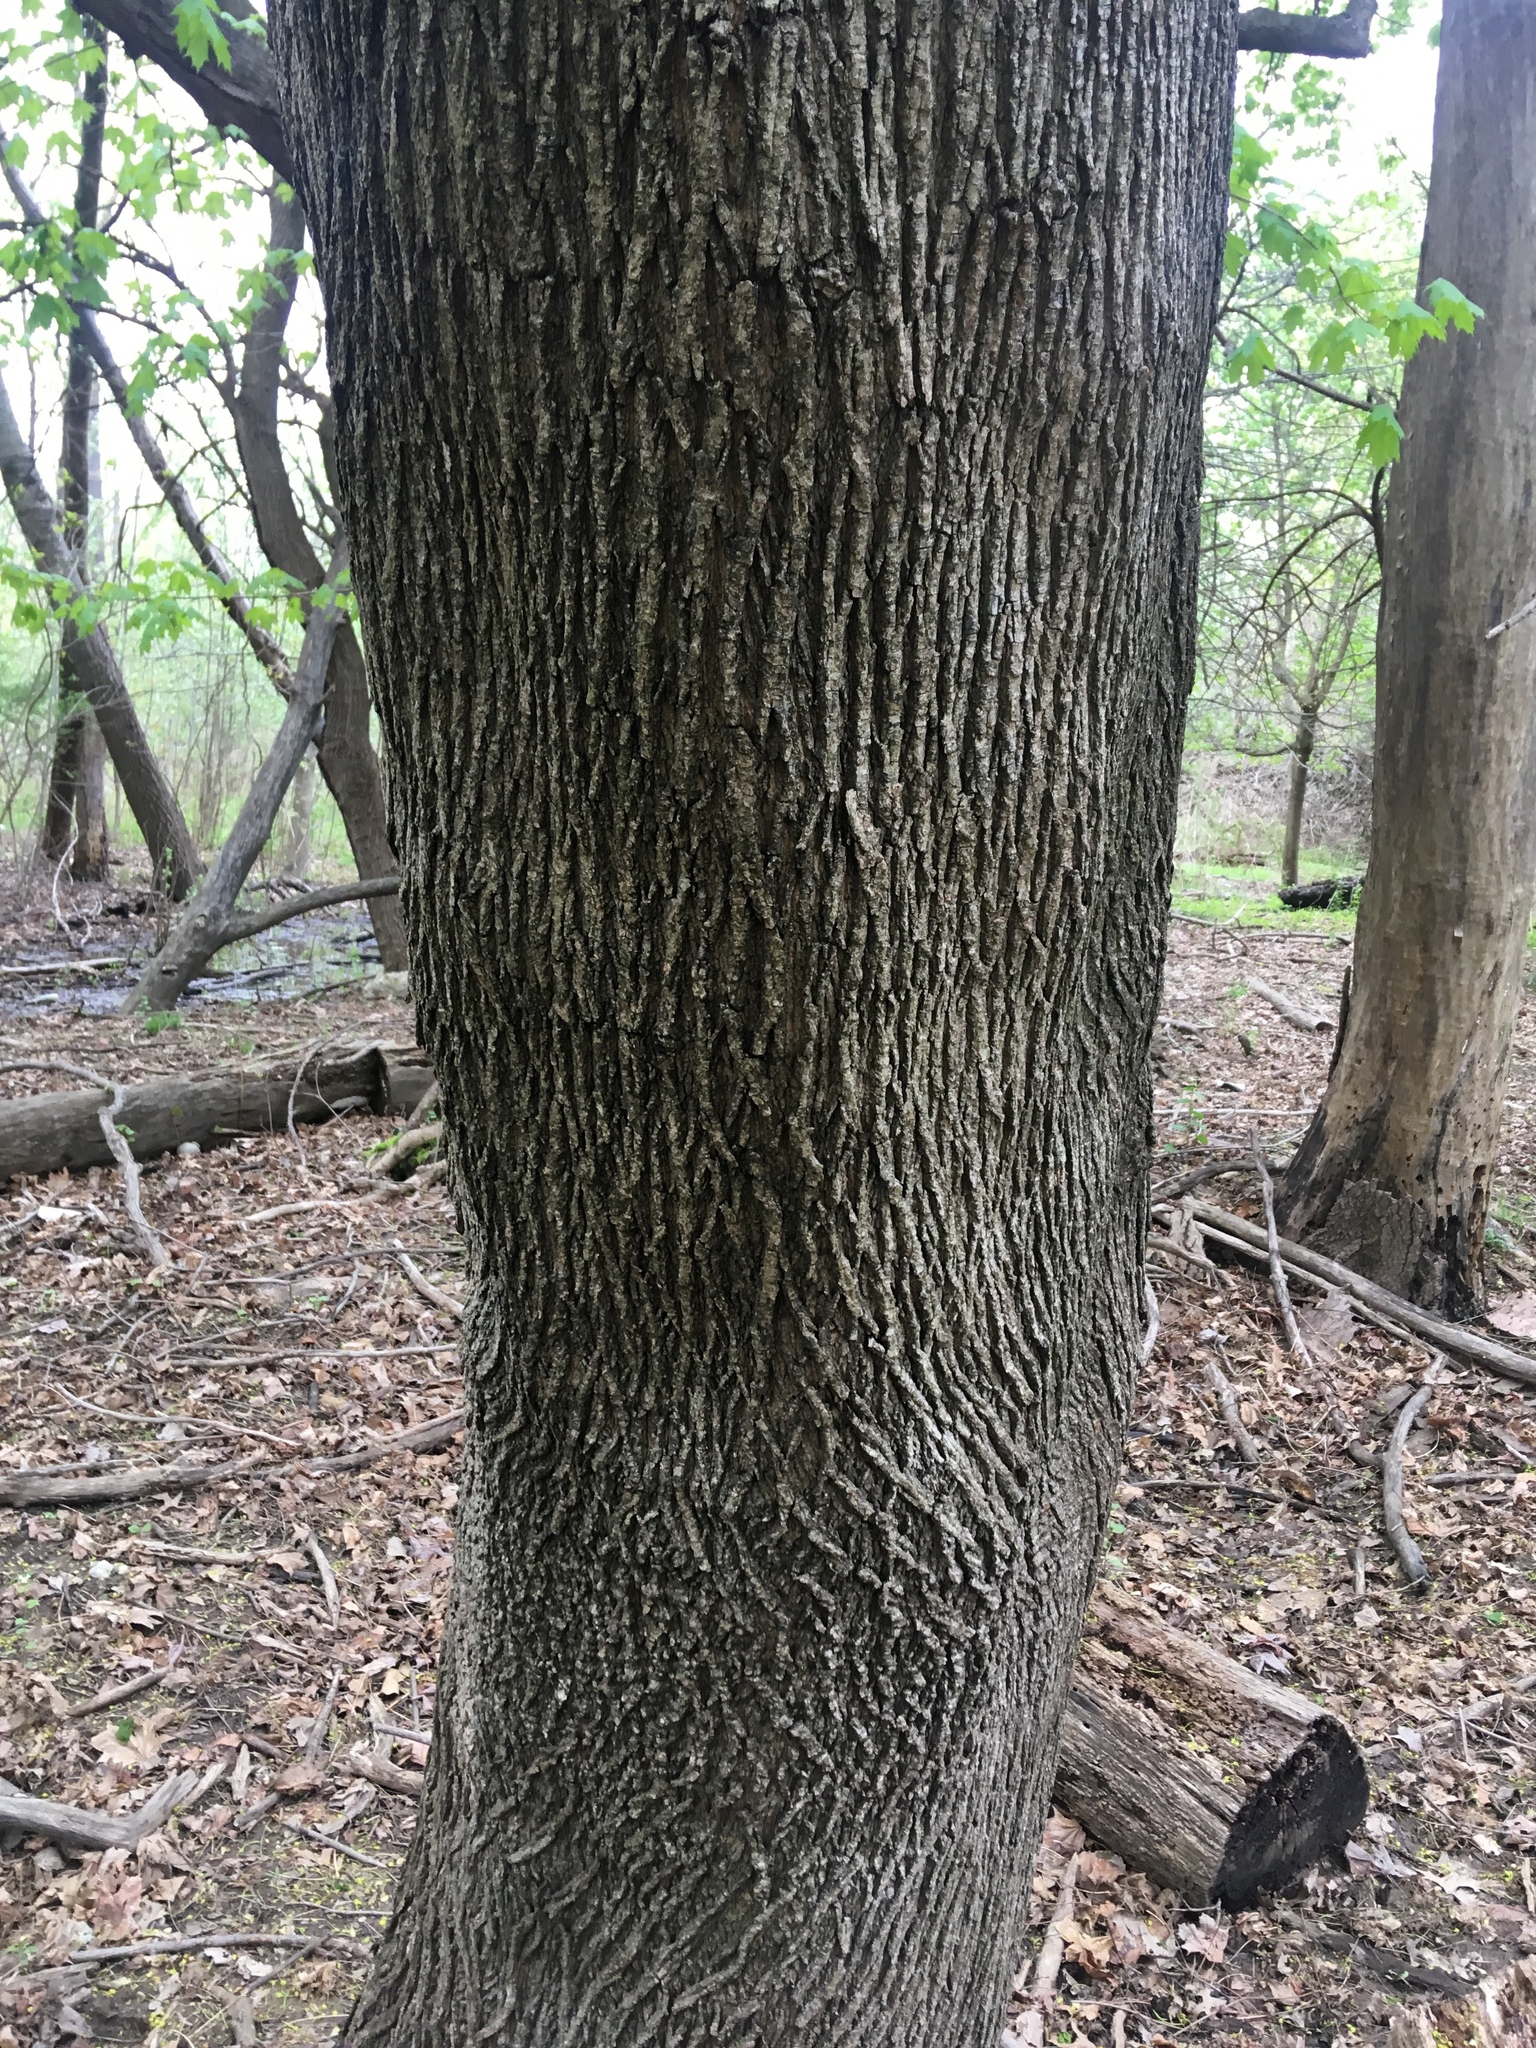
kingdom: Plantae
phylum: Tracheophyta
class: Magnoliopsida
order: Sapindales
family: Sapindaceae
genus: Acer
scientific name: Acer platanoides
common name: Norway maple
